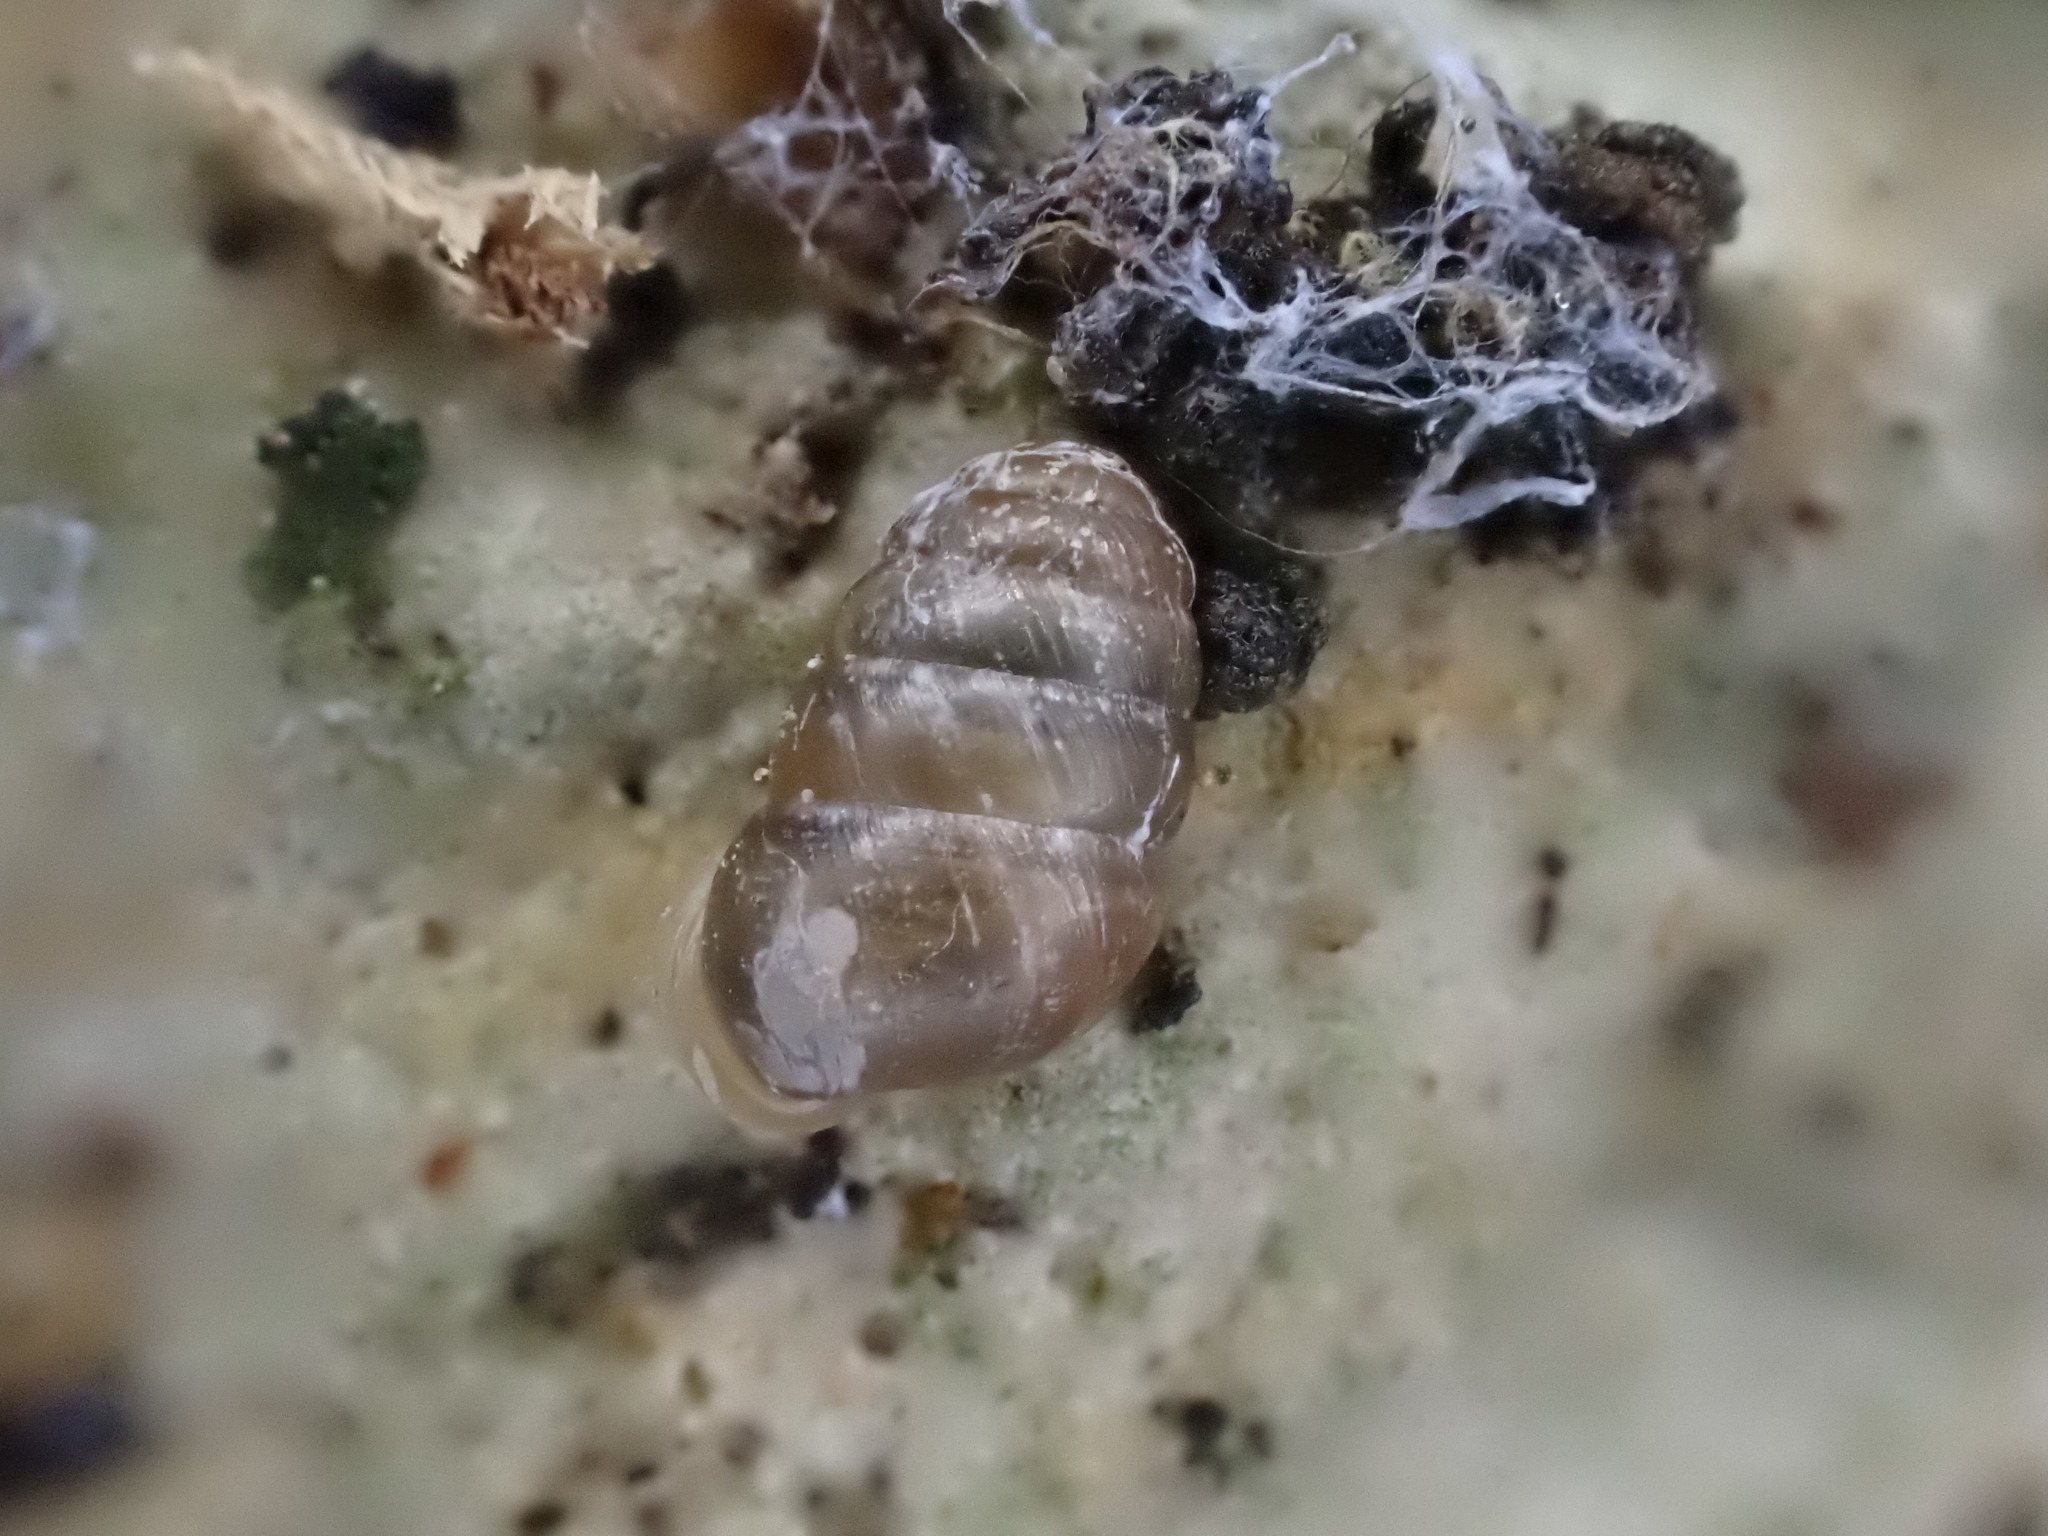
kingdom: Animalia
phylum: Mollusca
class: Gastropoda
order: Stylommatophora
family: Lauriidae
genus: Lauria
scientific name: Lauria cylindracea
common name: Common chrysalis snail
